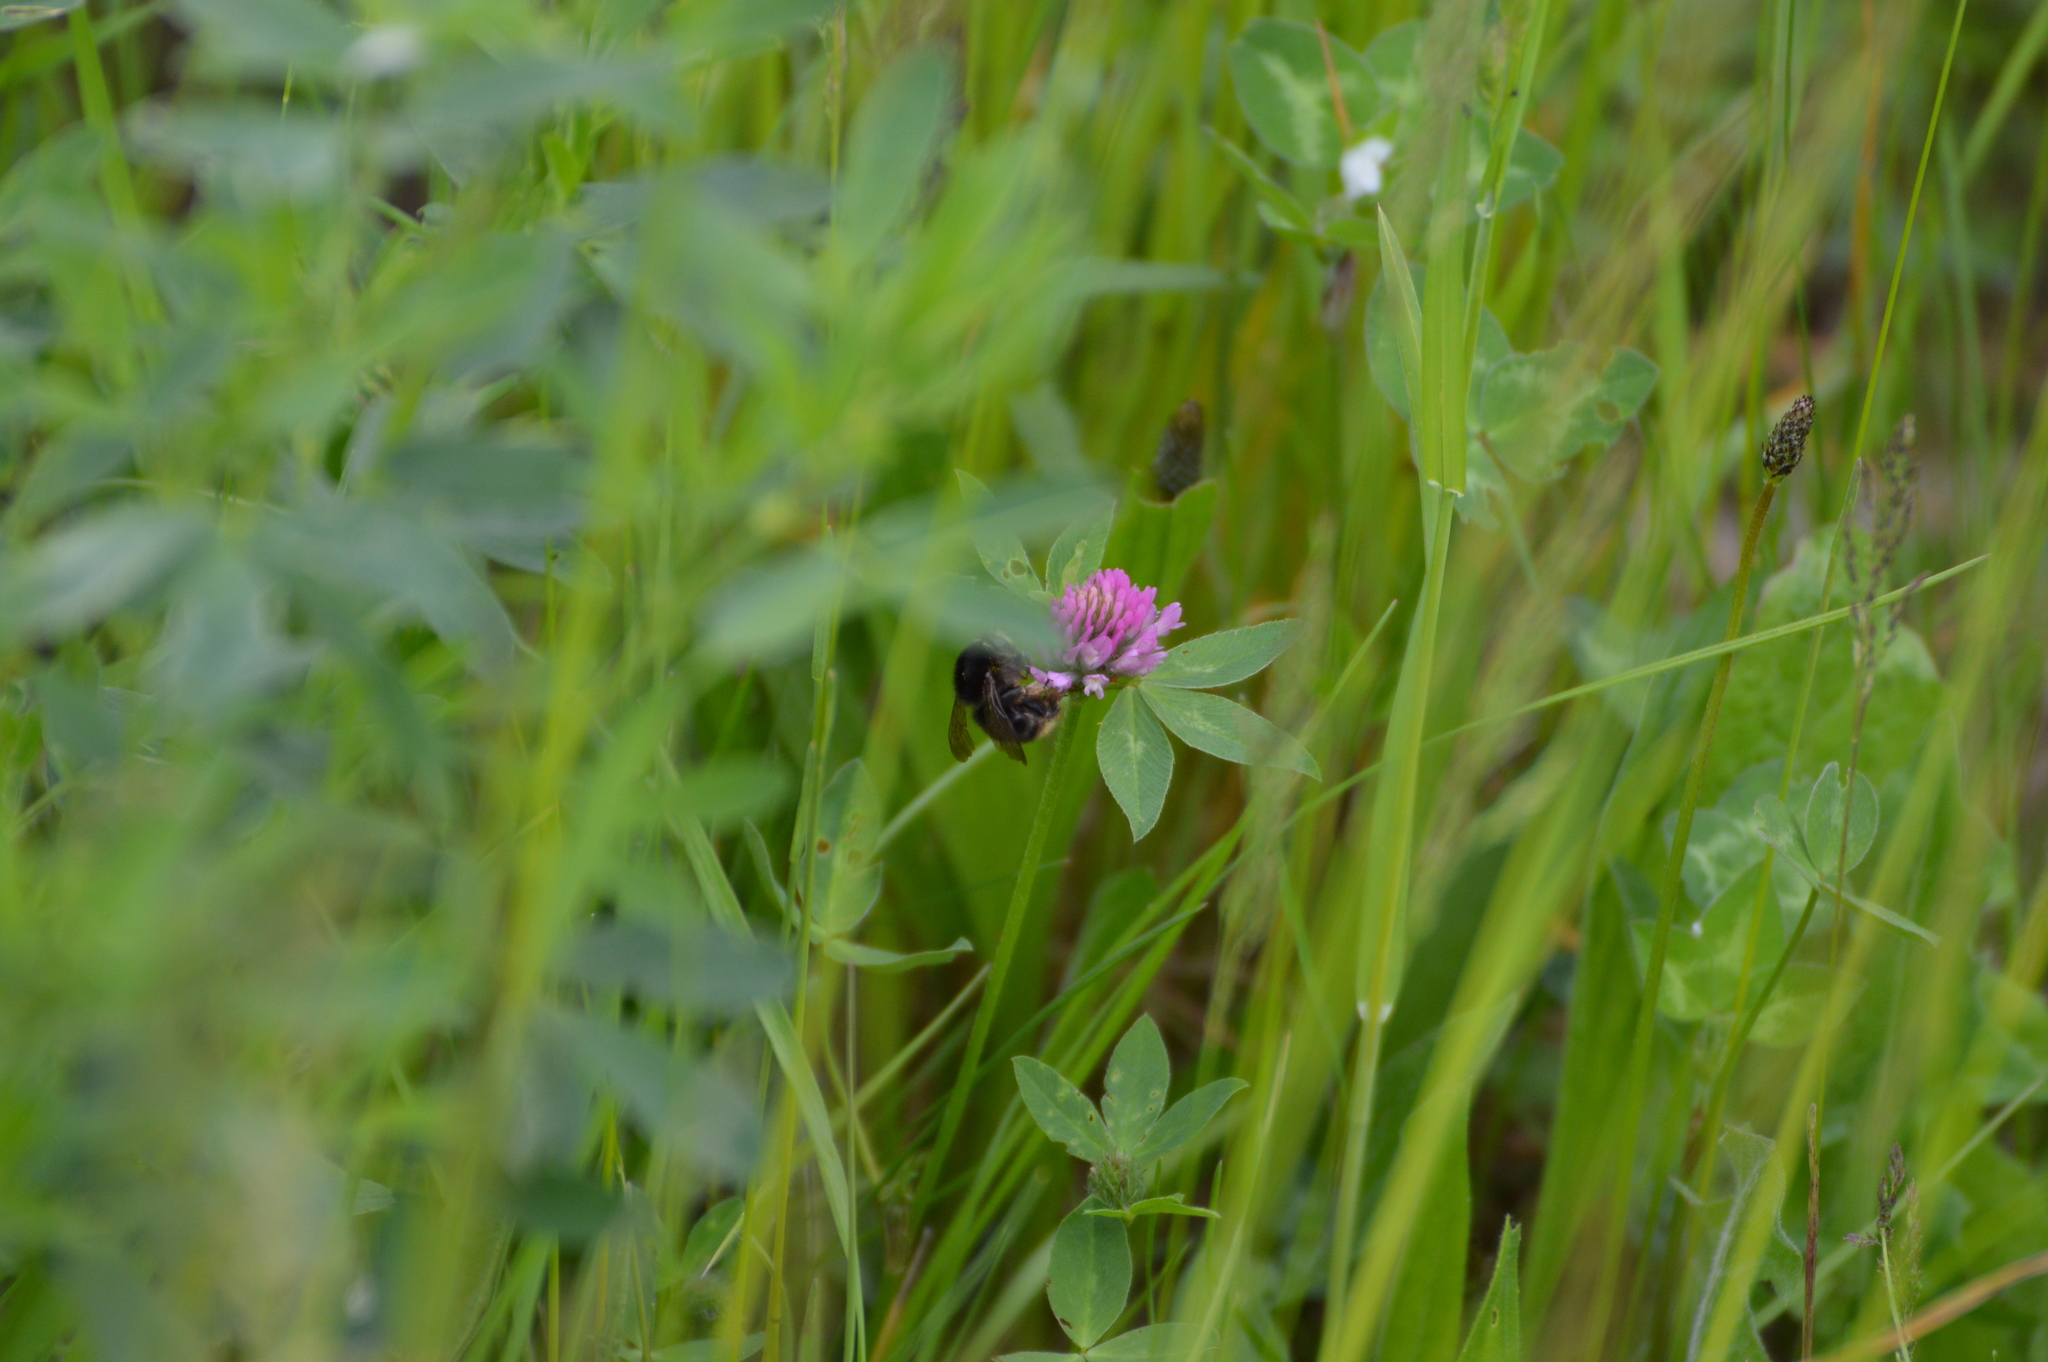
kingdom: Animalia
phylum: Arthropoda
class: Insecta
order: Hymenoptera
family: Apidae
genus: Bombus
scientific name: Bombus humilis
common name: Brown-banded carder-bee
